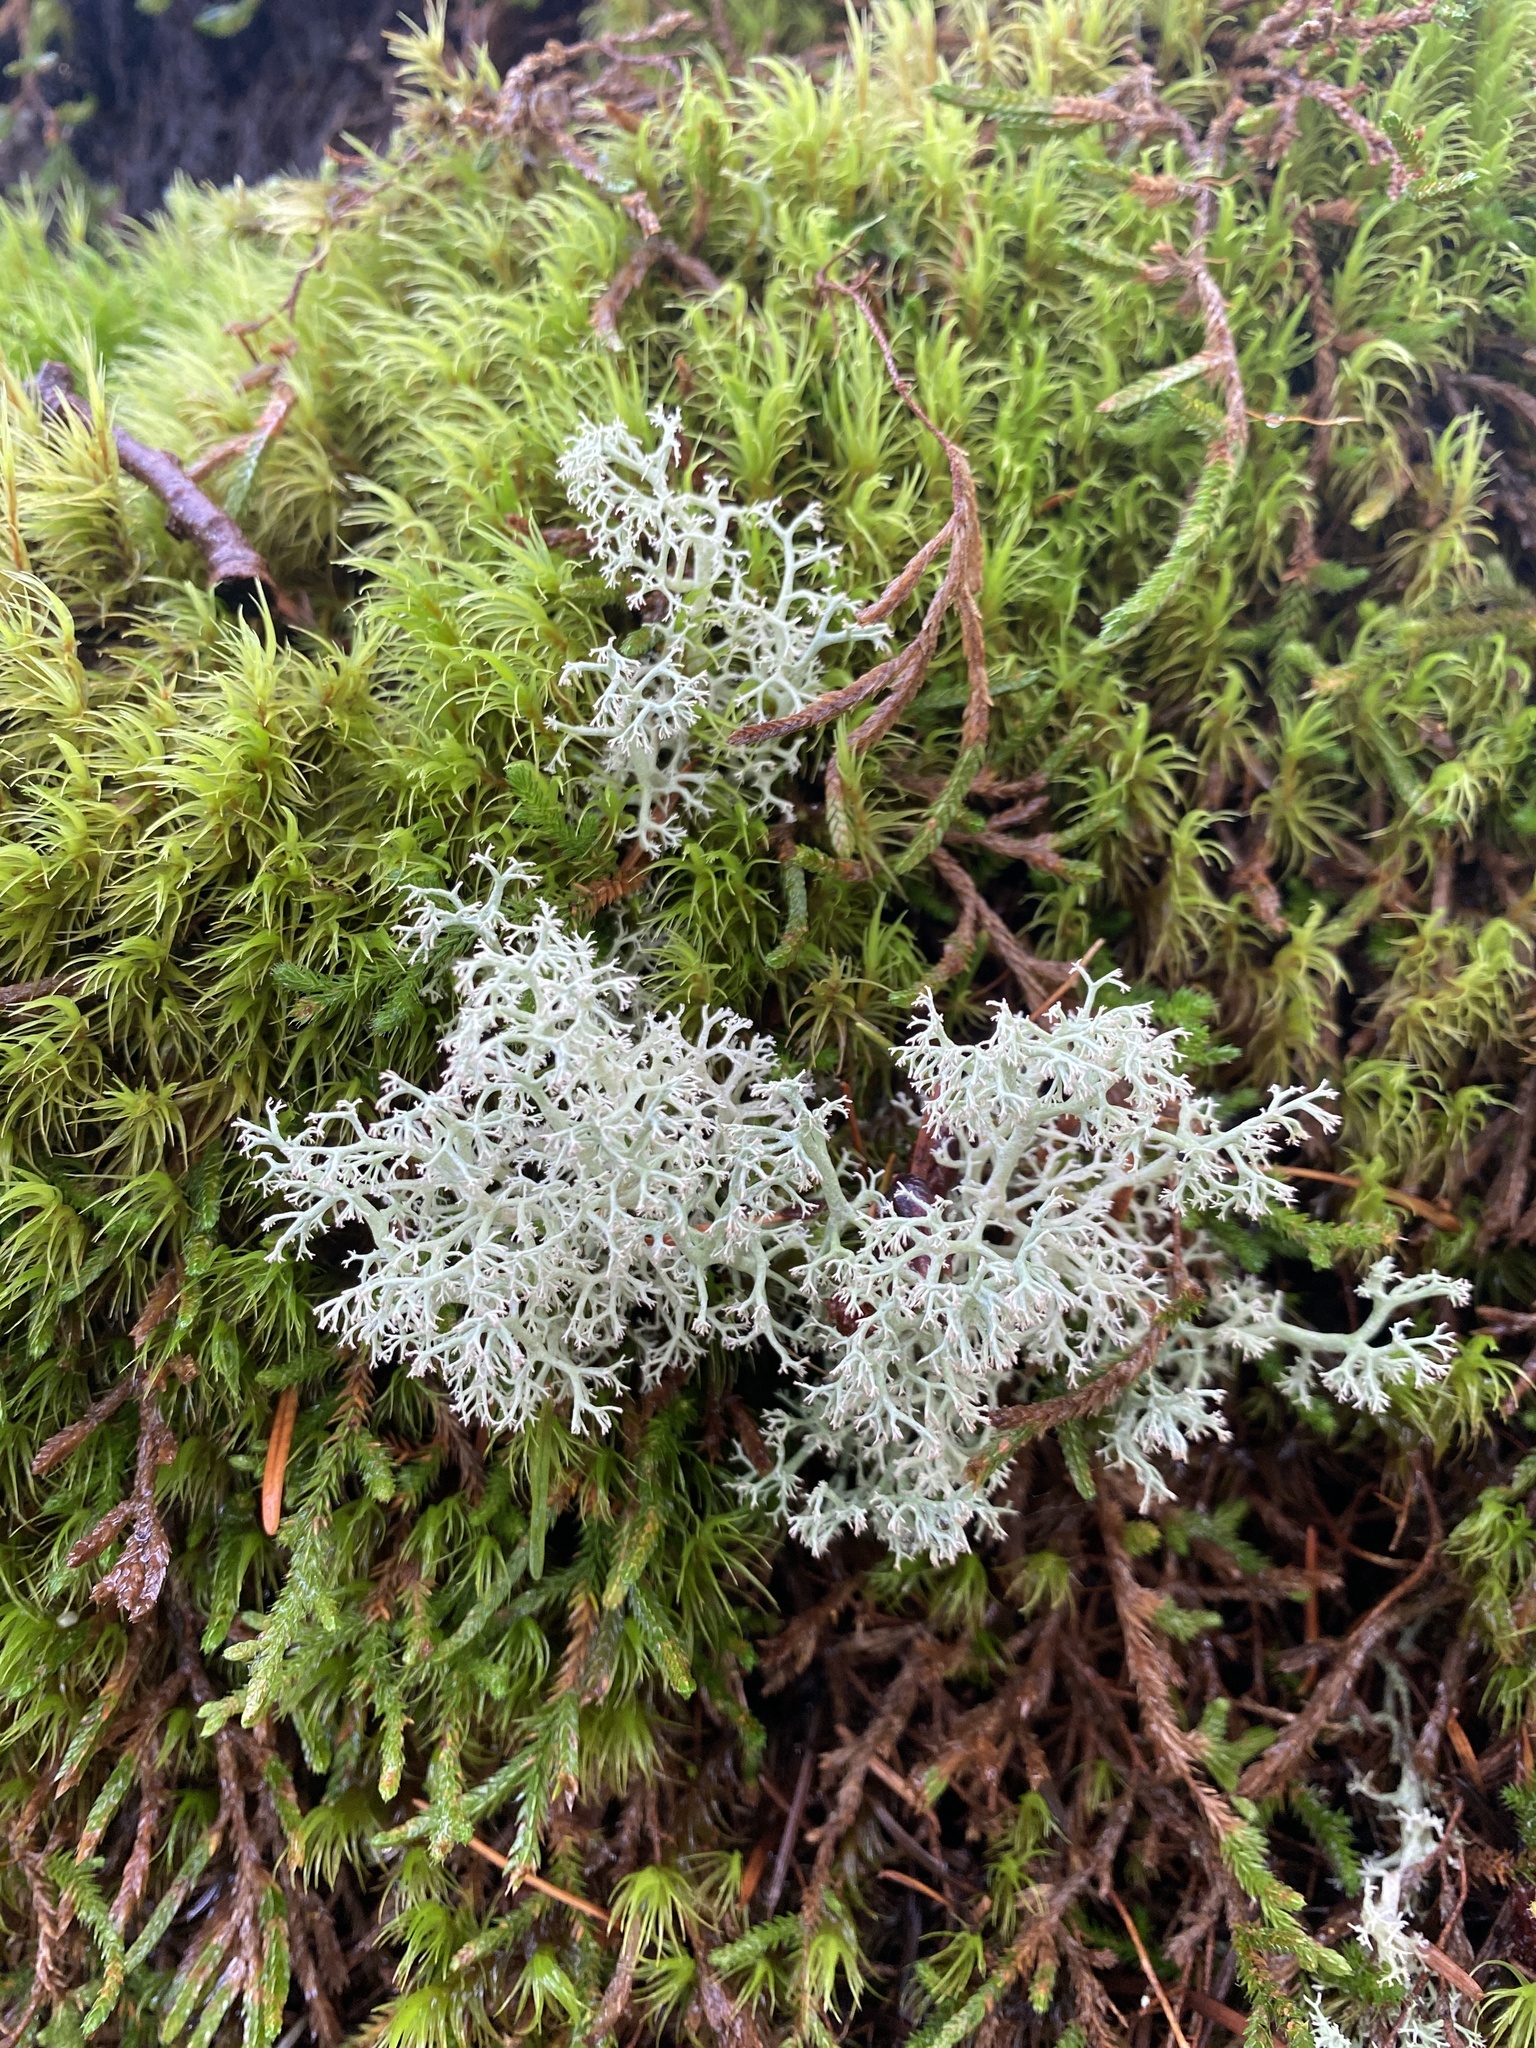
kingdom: Fungi
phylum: Ascomycota
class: Lecanoromycetes
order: Lecanorales
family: Cladoniaceae
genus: Cladonia
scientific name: Cladonia rangiferina
